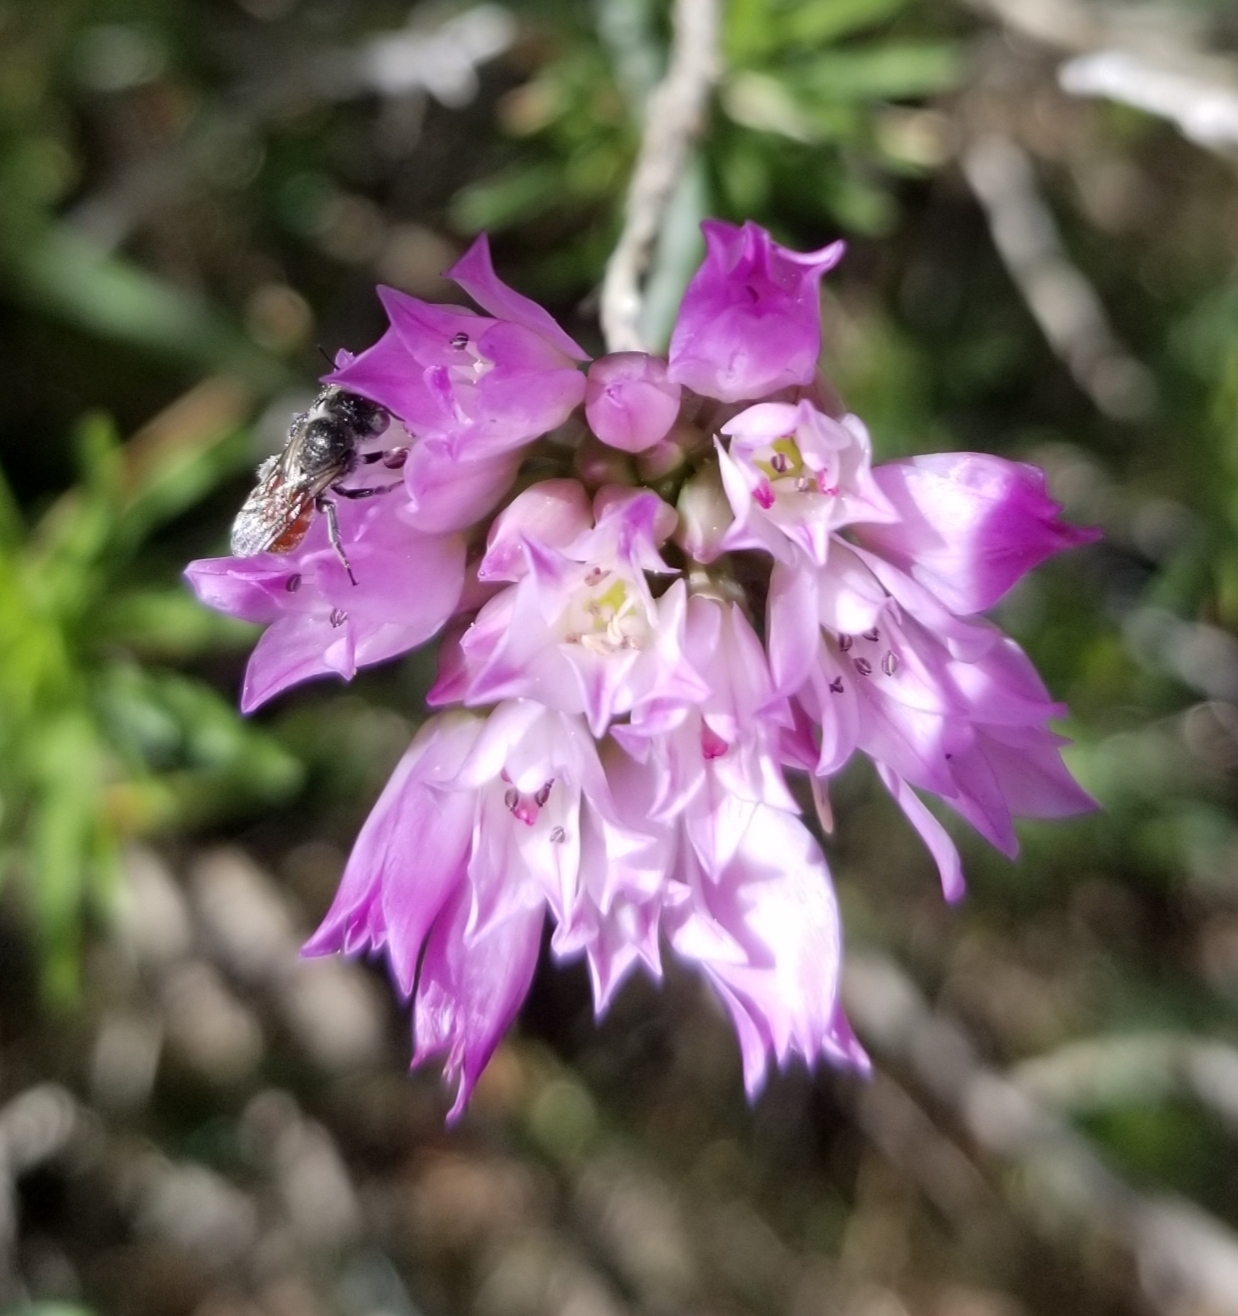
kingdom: Plantae
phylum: Tracheophyta
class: Liliopsida
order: Asparagales
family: Amaryllidaceae
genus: Allium
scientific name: Allium serra
